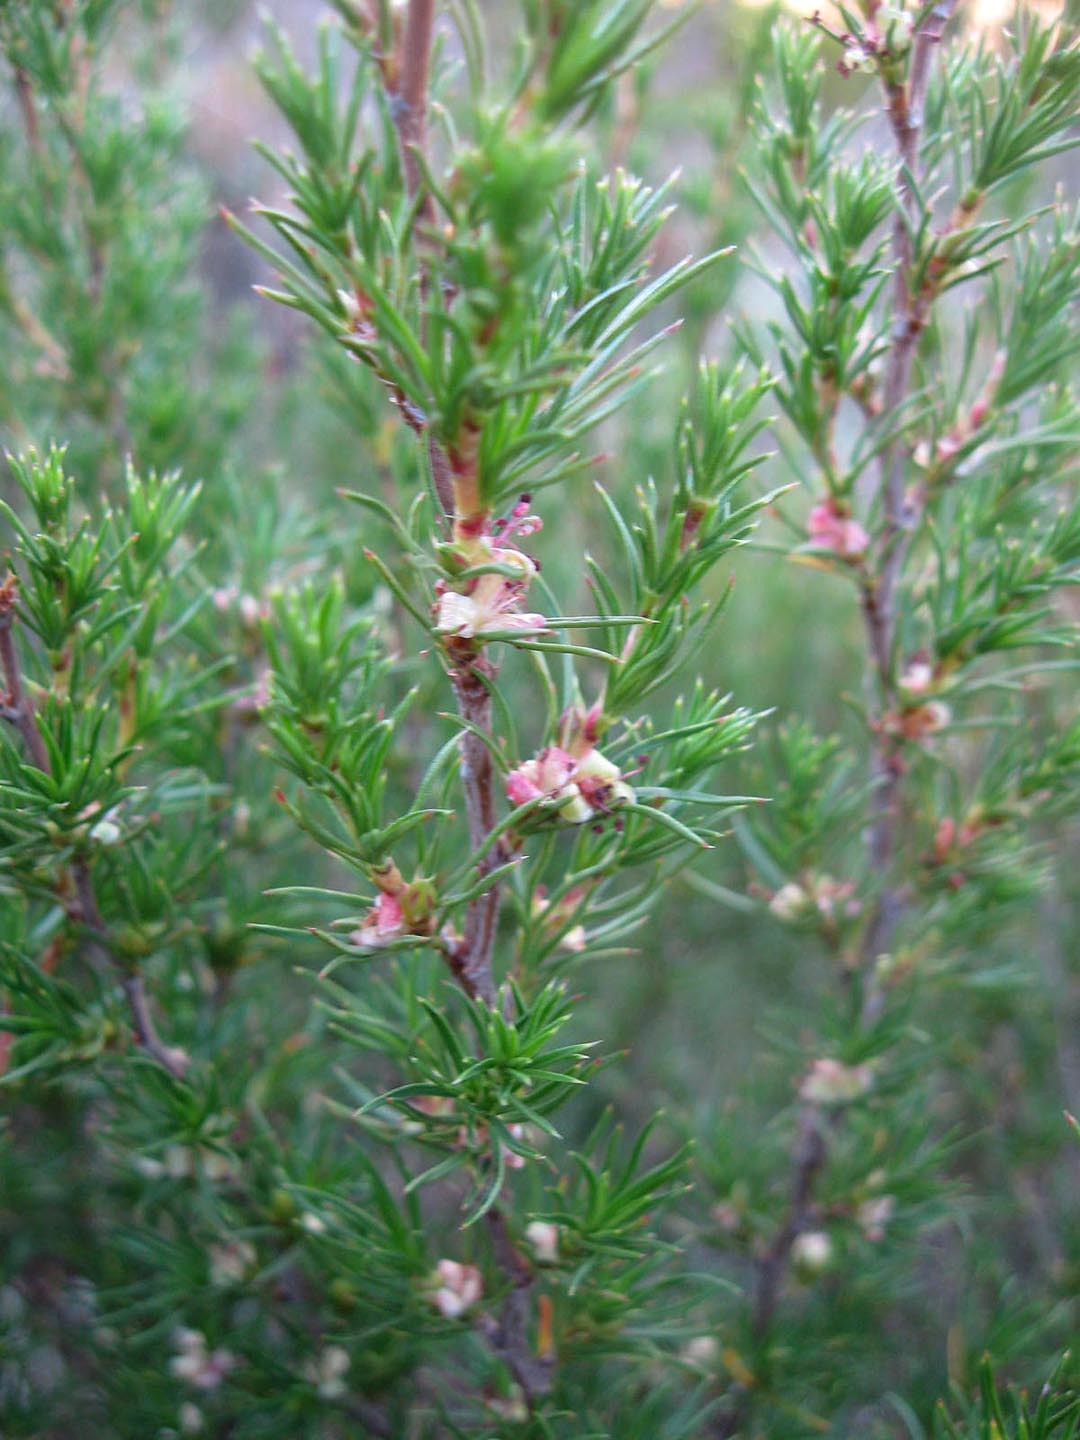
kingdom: Plantae
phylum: Tracheophyta
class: Magnoliopsida
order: Rosales
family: Rosaceae
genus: Cliffortia
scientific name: Cliffortia atrata
